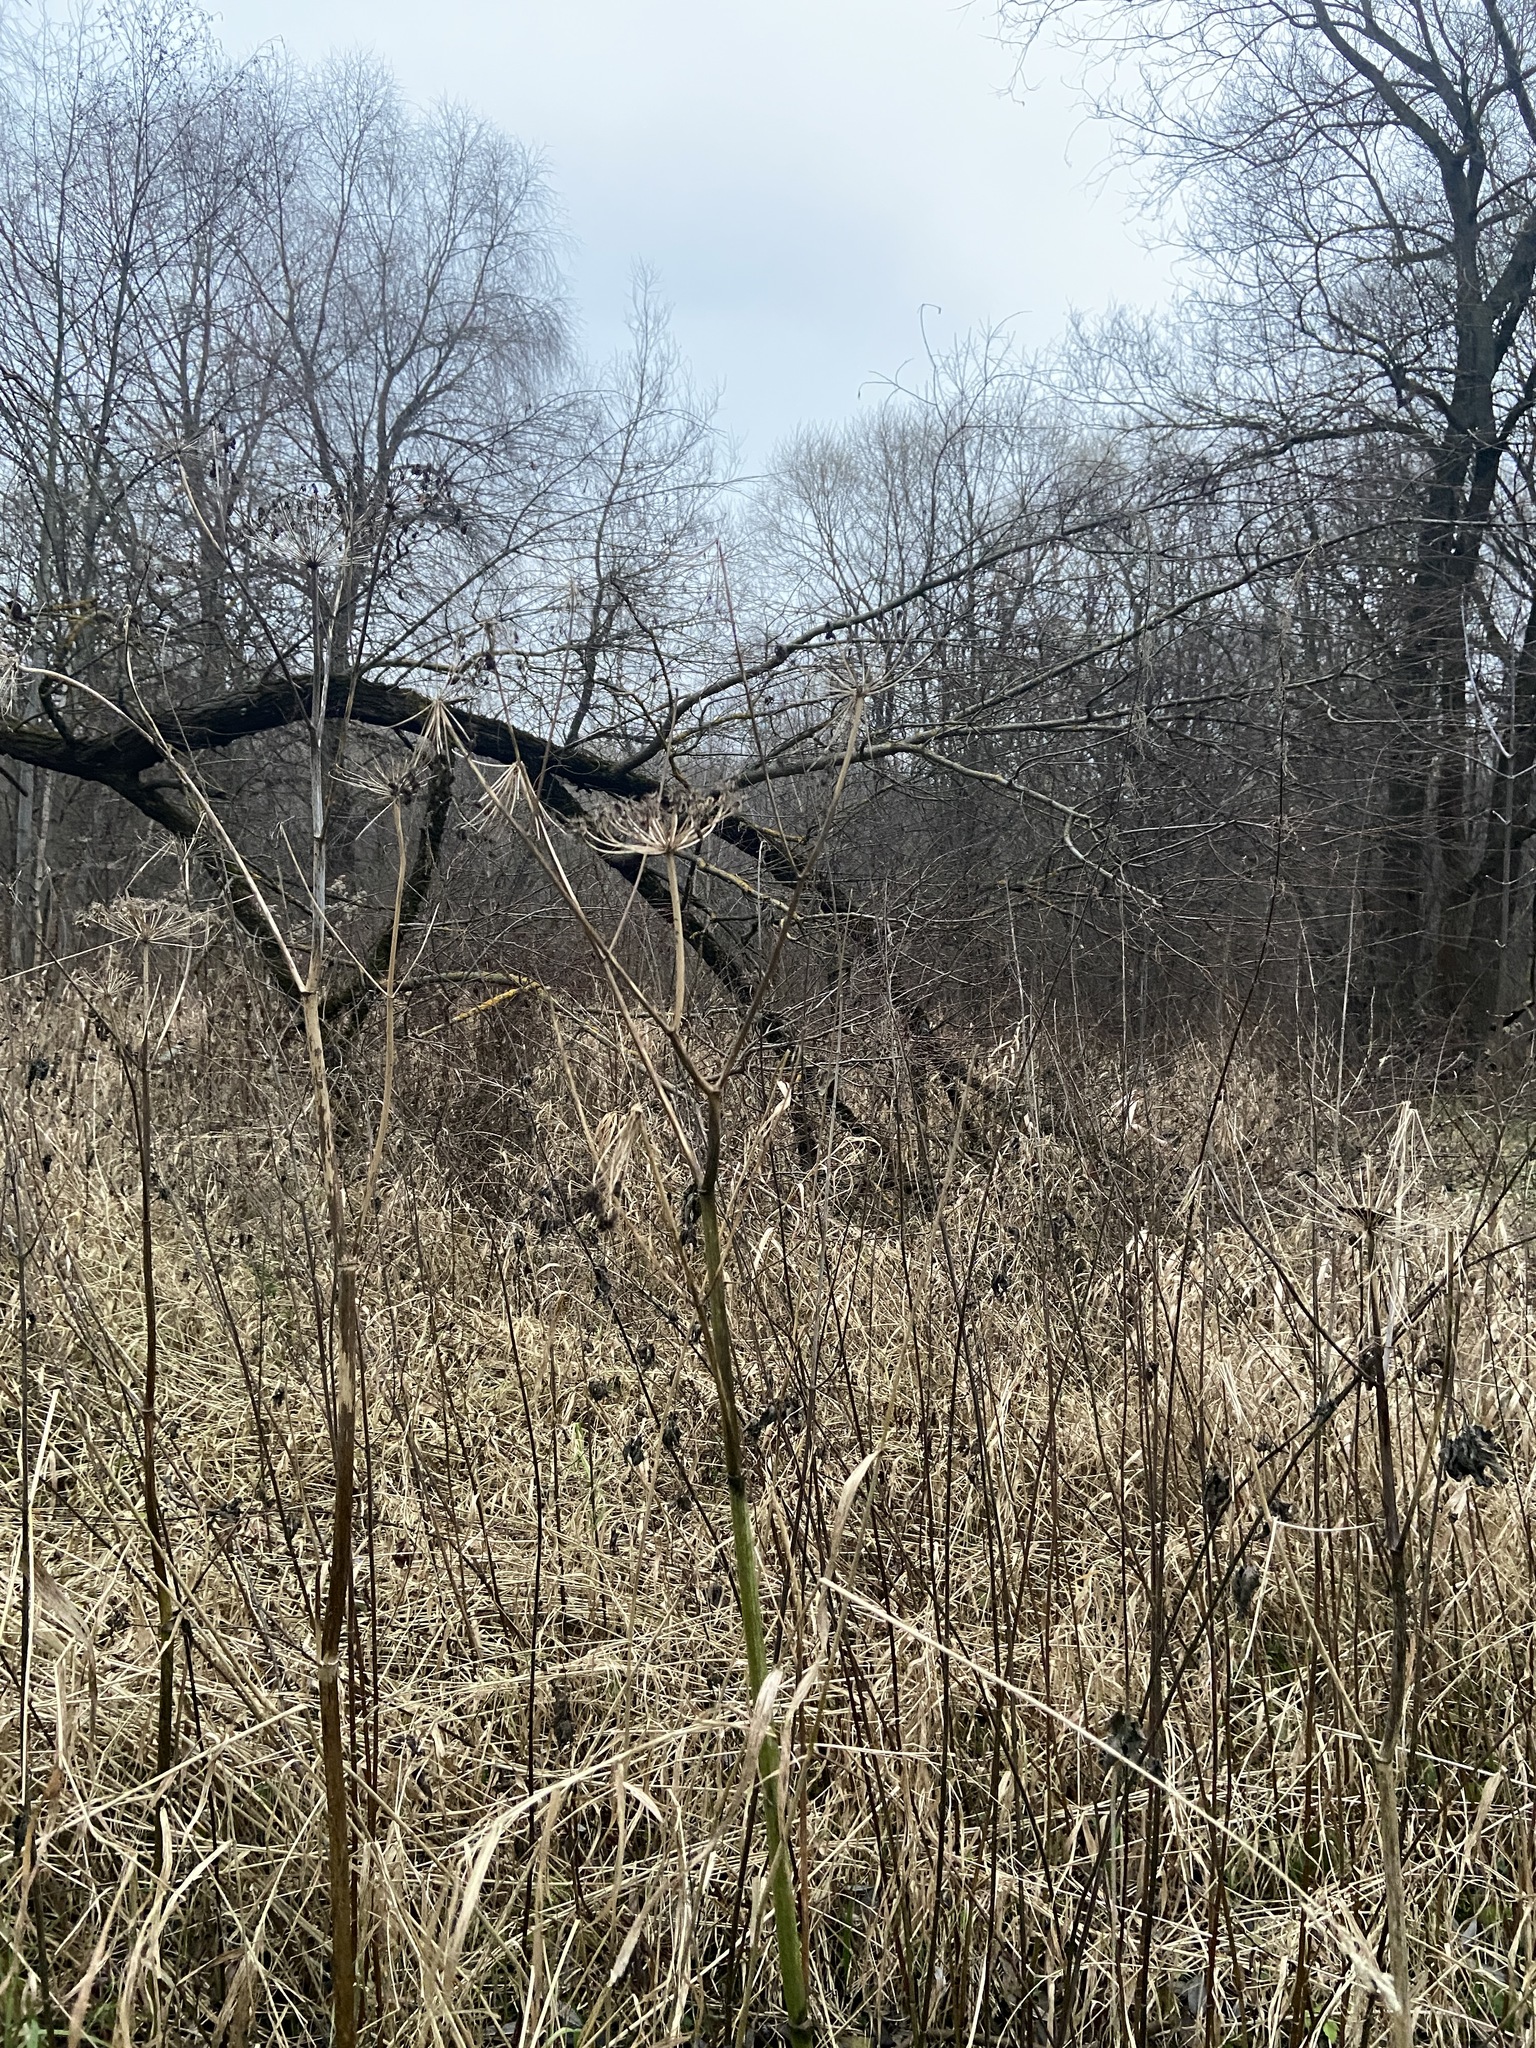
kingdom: Plantae
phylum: Tracheophyta
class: Magnoliopsida
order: Apiales
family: Apiaceae
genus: Heracleum
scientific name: Heracleum sosnowskyi
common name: Sosnowsky's hogweed
